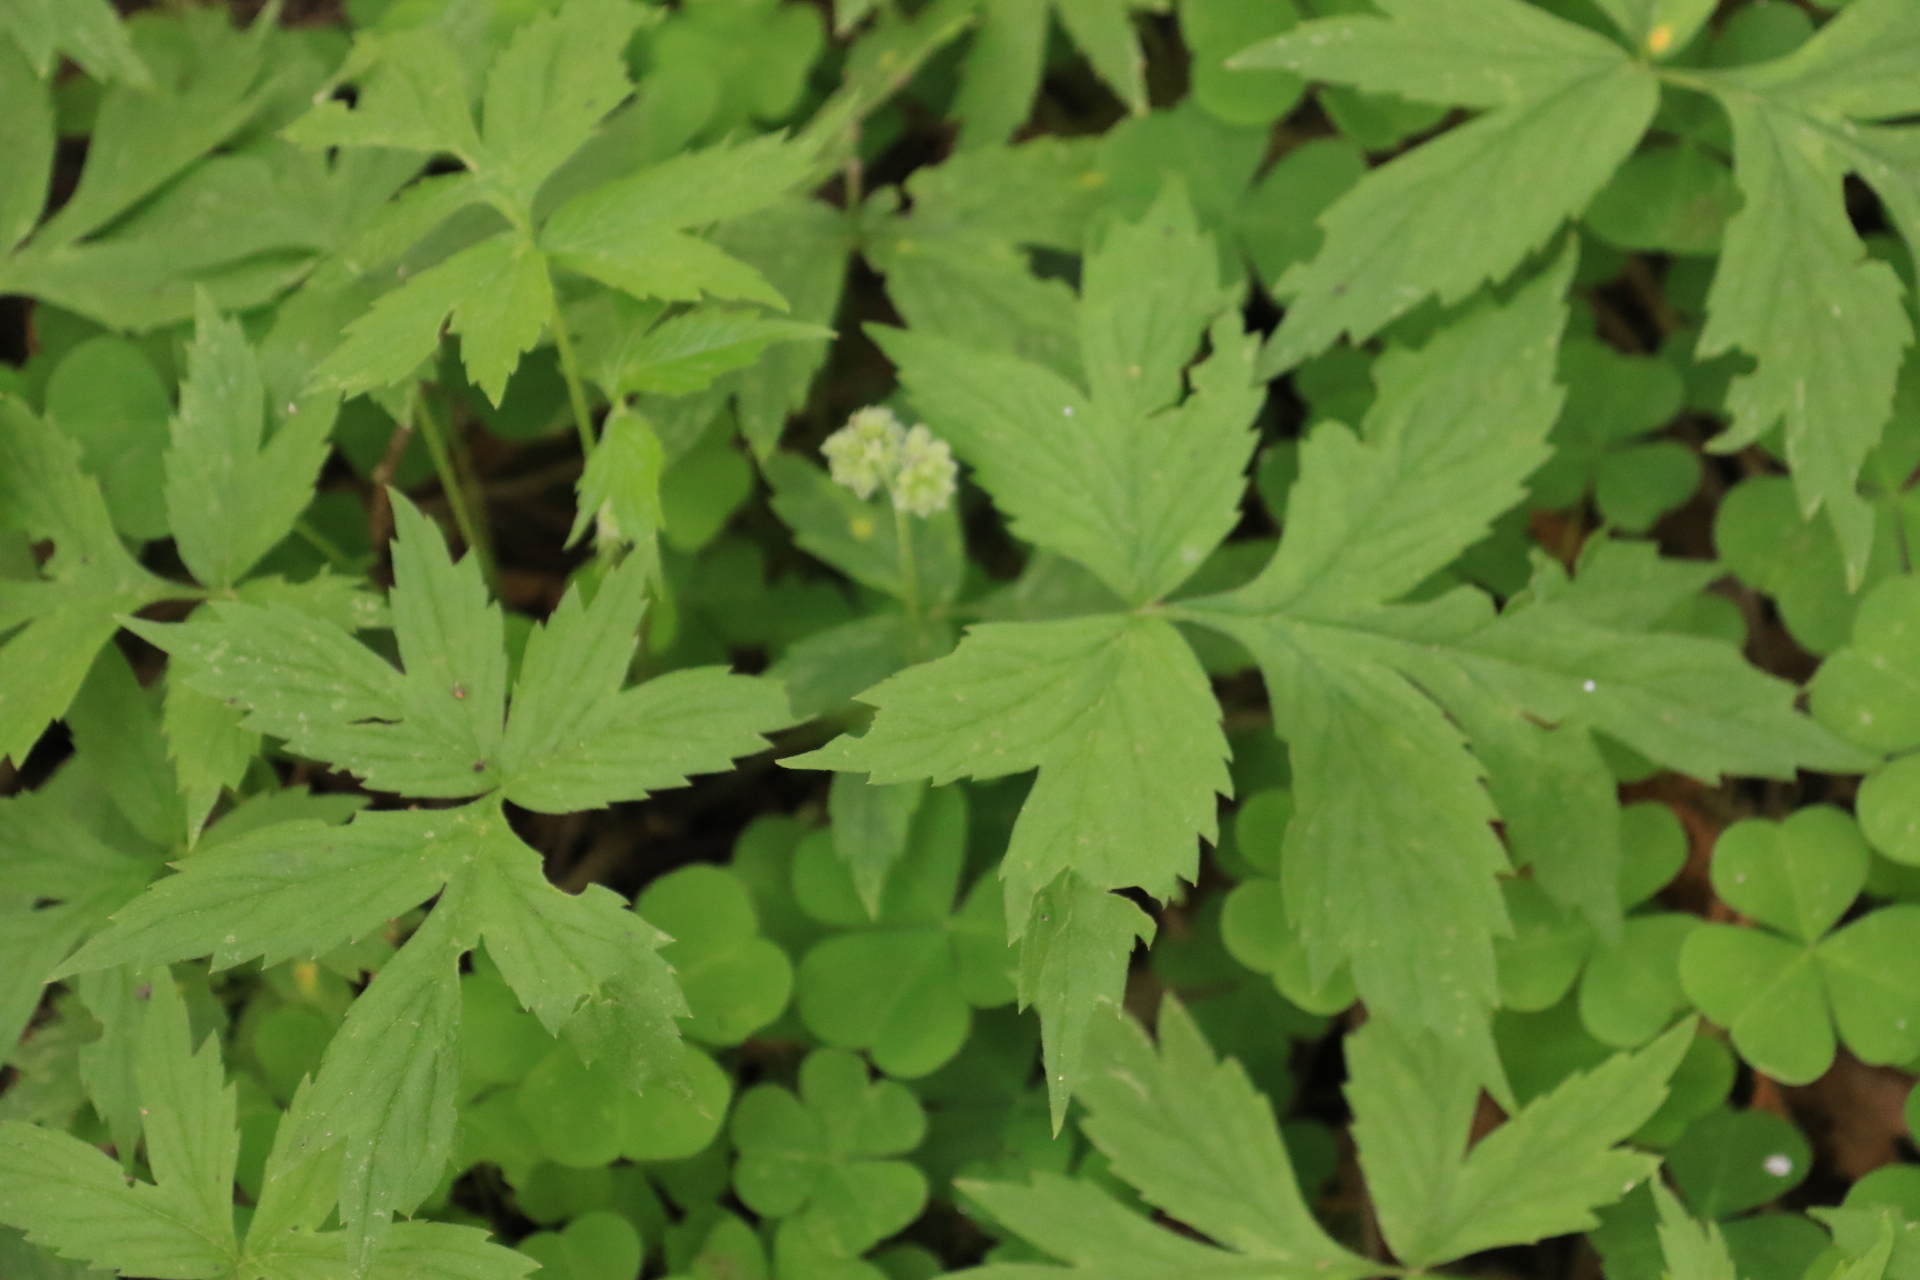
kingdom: Plantae
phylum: Tracheophyta
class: Magnoliopsida
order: Boraginales
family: Hydrophyllaceae
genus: Hydrophyllum
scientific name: Hydrophyllum tenuipes
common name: Pacific waterleaf
